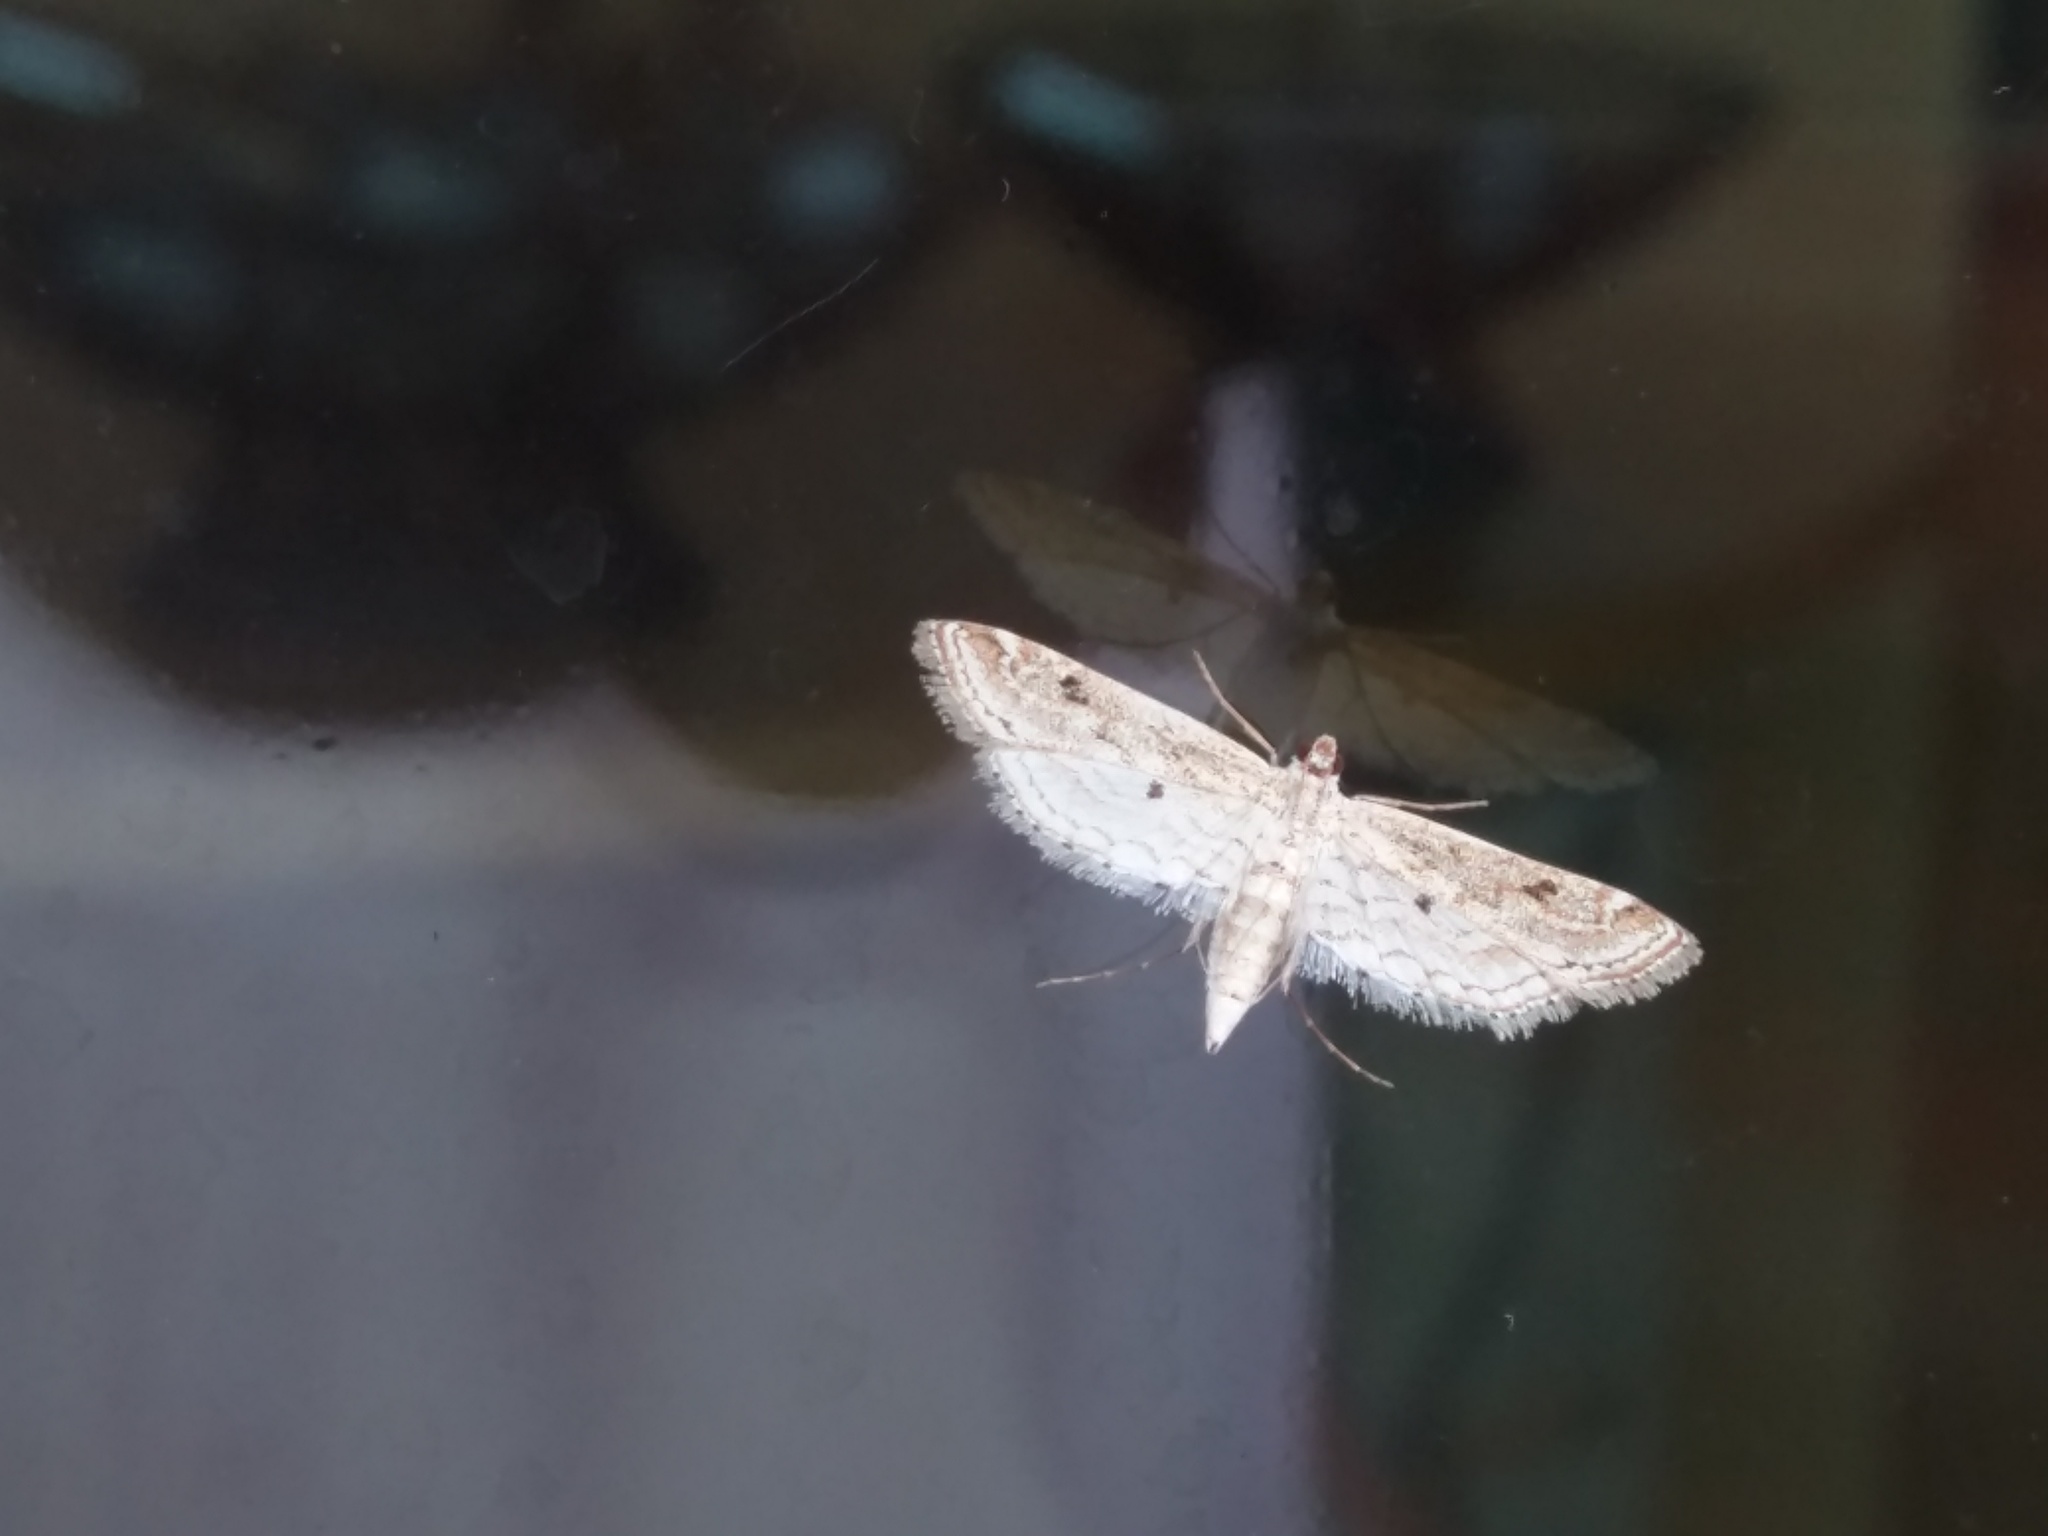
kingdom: Animalia
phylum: Arthropoda
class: Insecta
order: Lepidoptera
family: Crambidae
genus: Parapoynx
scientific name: Parapoynx allionealis
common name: Bladderwort casemaker
